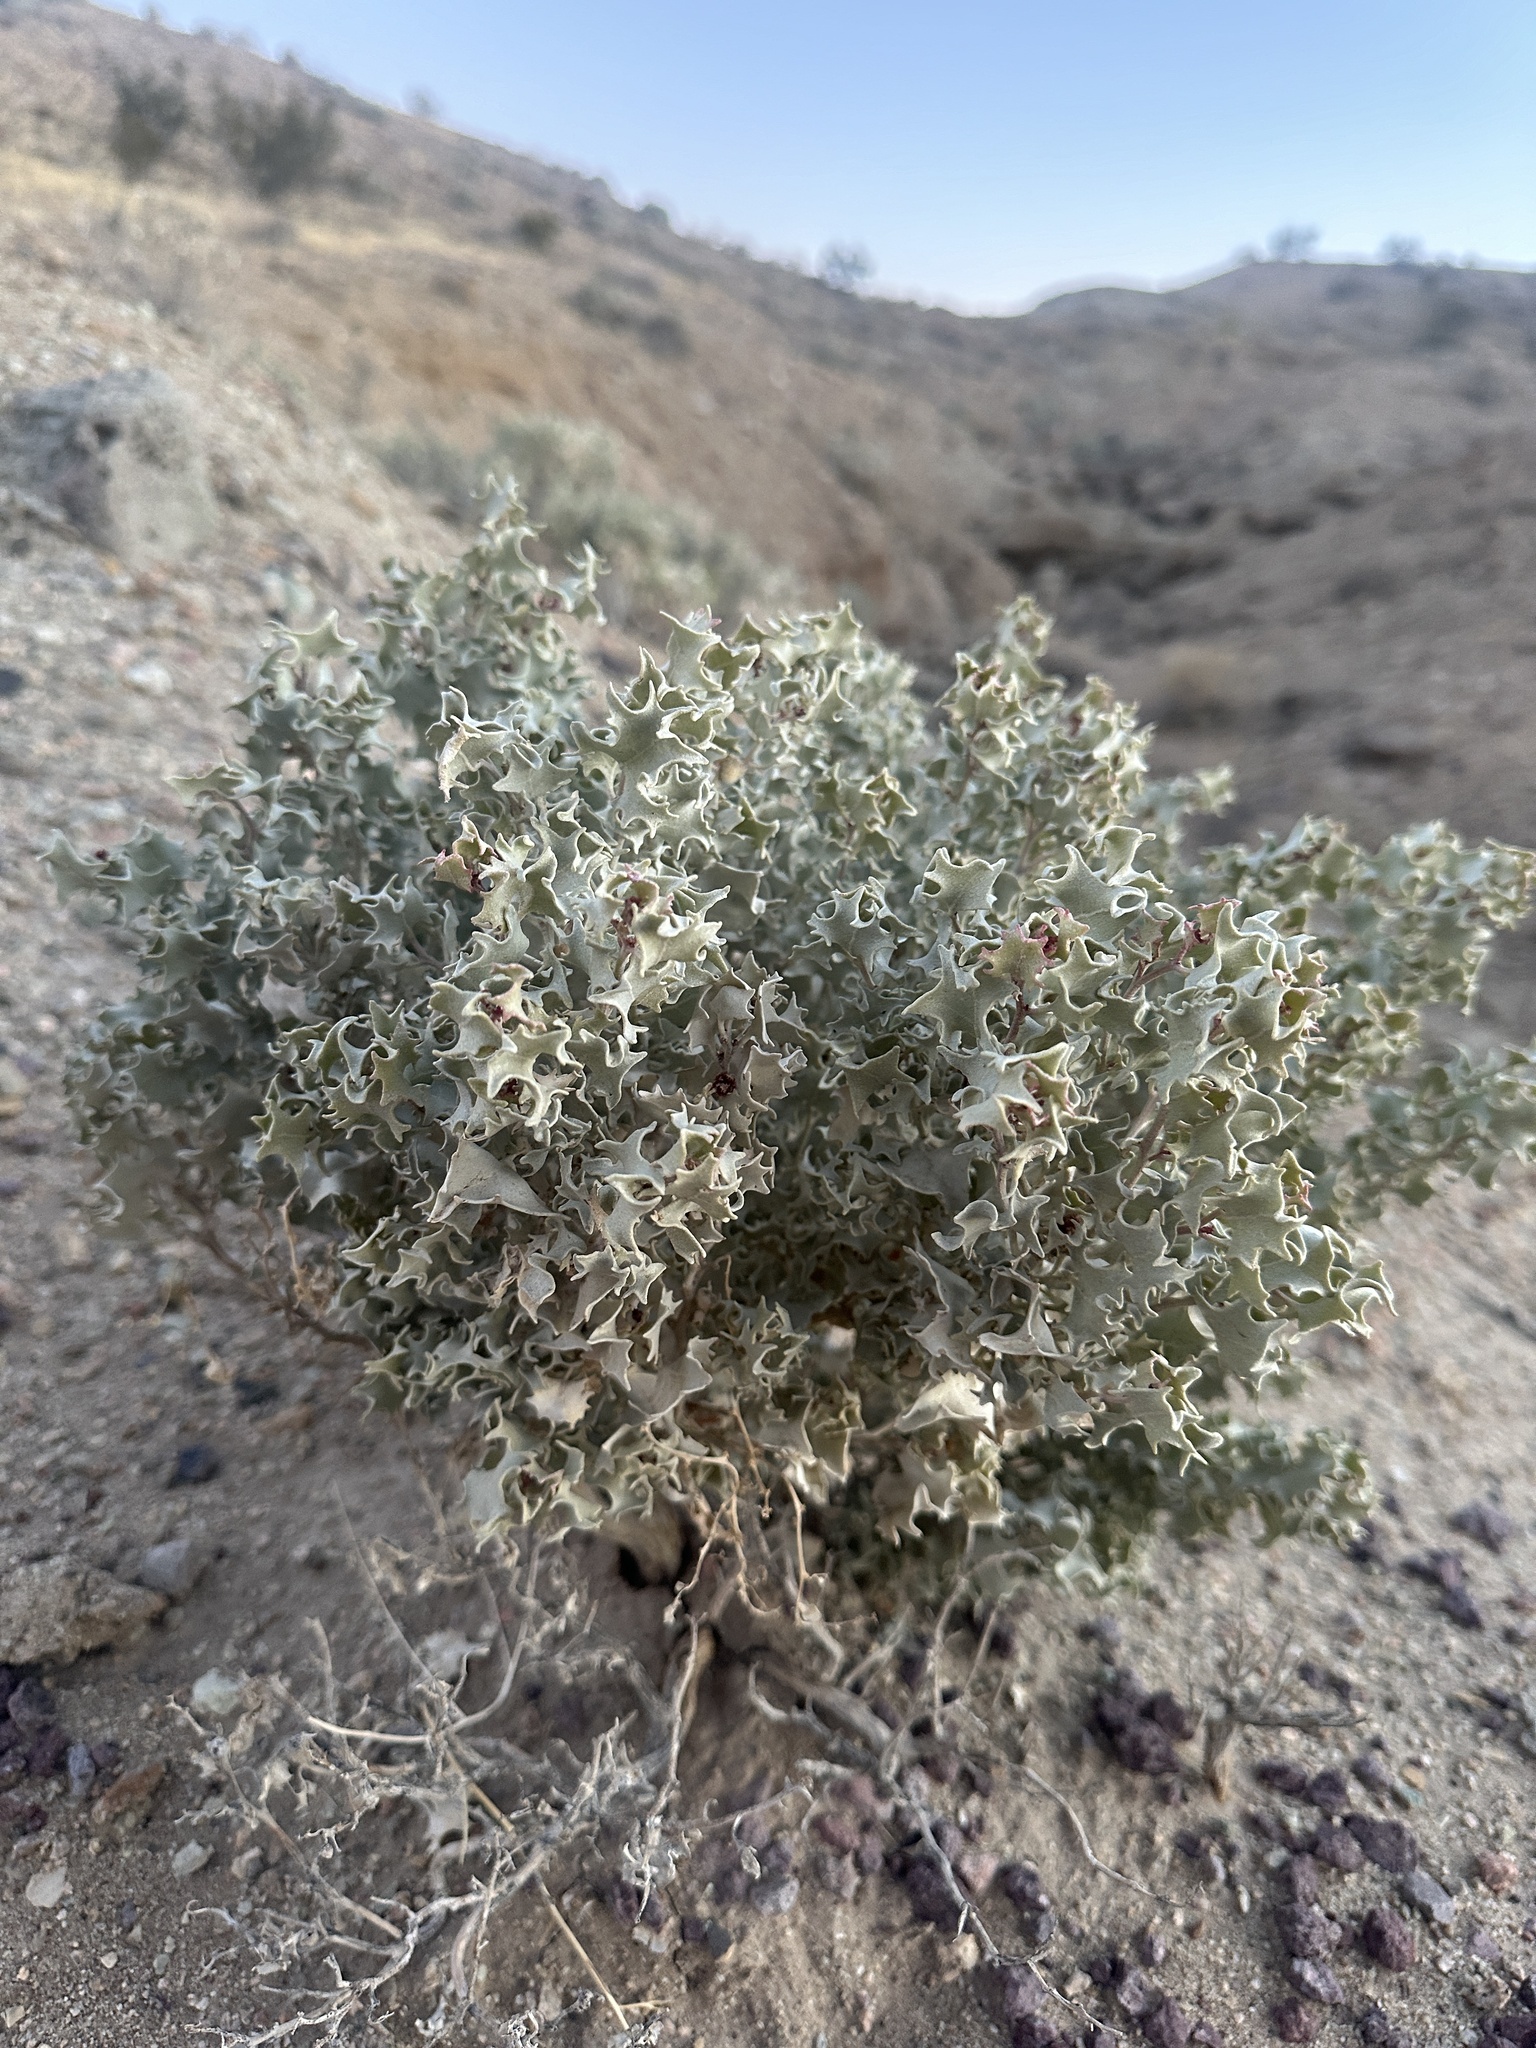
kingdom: Plantae
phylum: Tracheophyta
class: Magnoliopsida
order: Caryophyllales
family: Amaranthaceae
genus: Atriplex
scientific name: Atriplex hymenelytra
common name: Desert-holly
